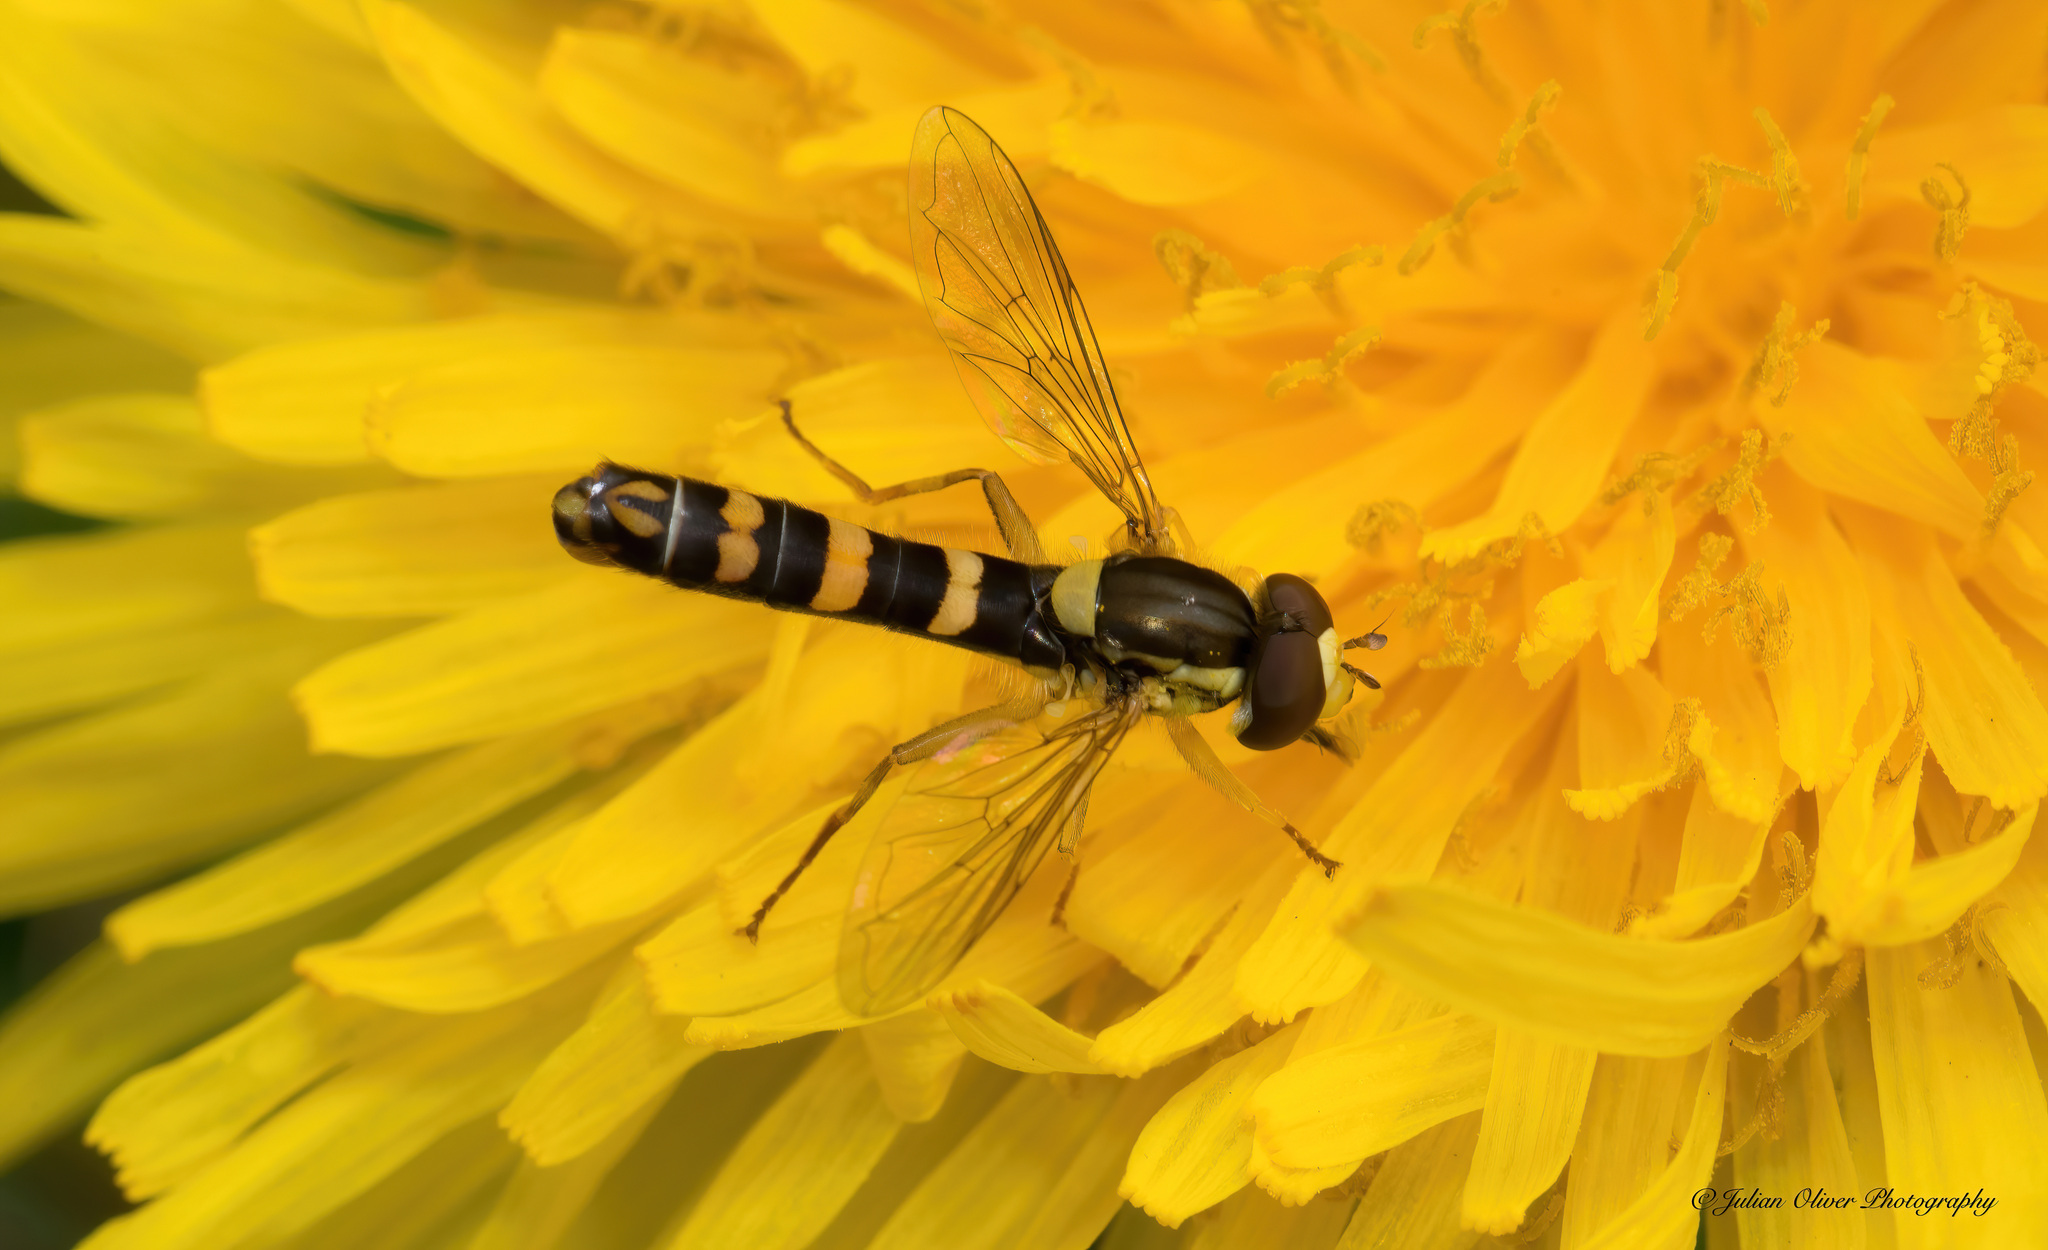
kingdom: Animalia
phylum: Arthropoda
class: Insecta
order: Diptera
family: Syrphidae
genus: Sphaerophoria
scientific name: Sphaerophoria scripta
